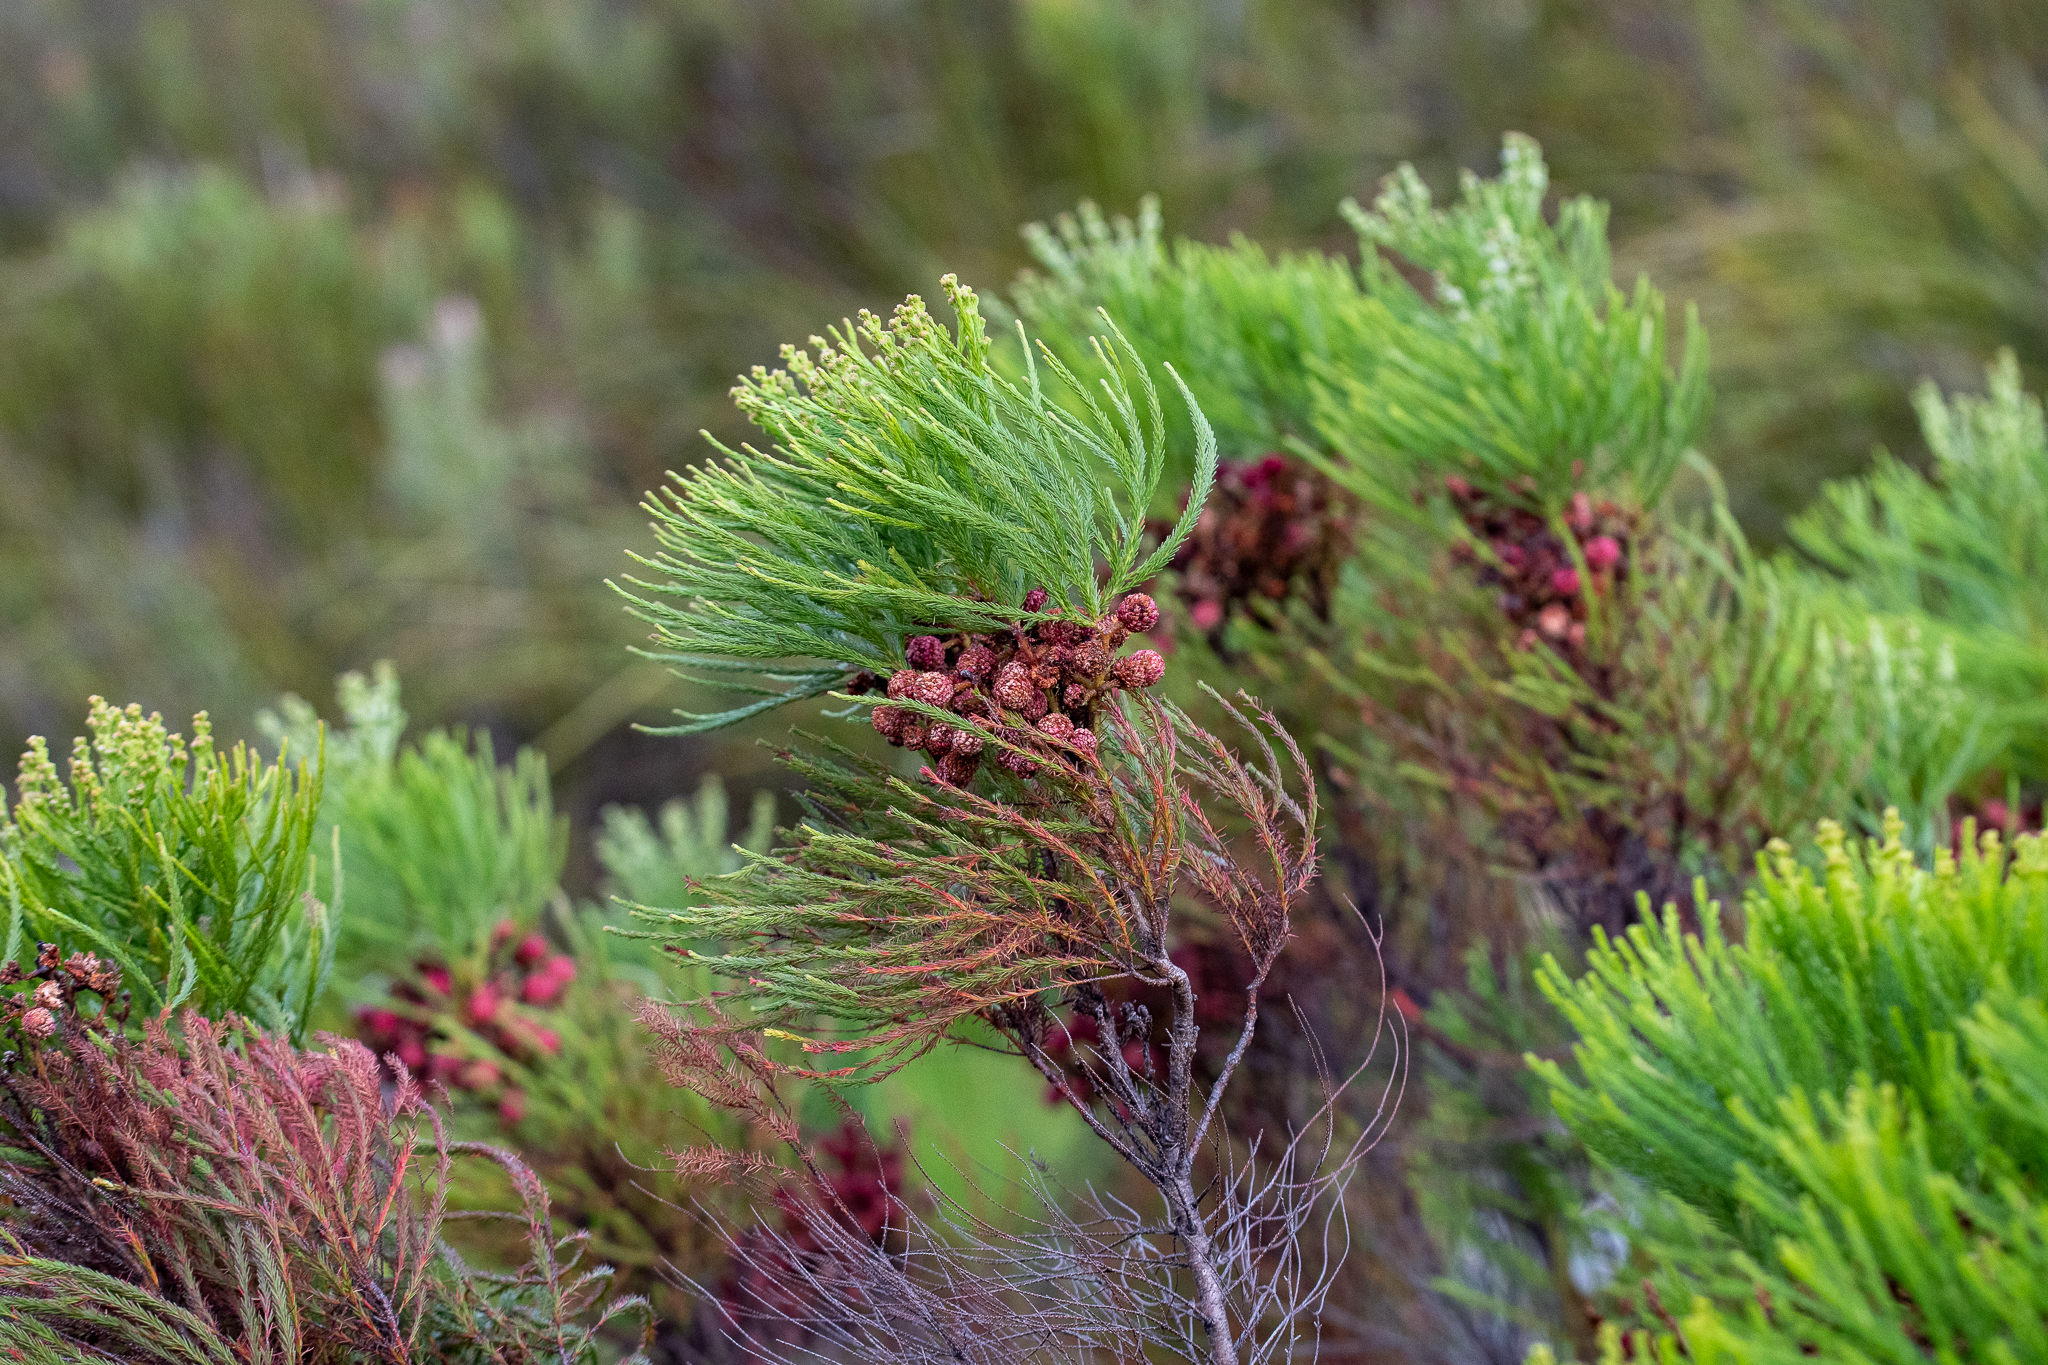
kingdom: Plantae
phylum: Tracheophyta
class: Magnoliopsida
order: Bruniales
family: Bruniaceae
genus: Berzelia
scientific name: Berzelia lanuginosa
